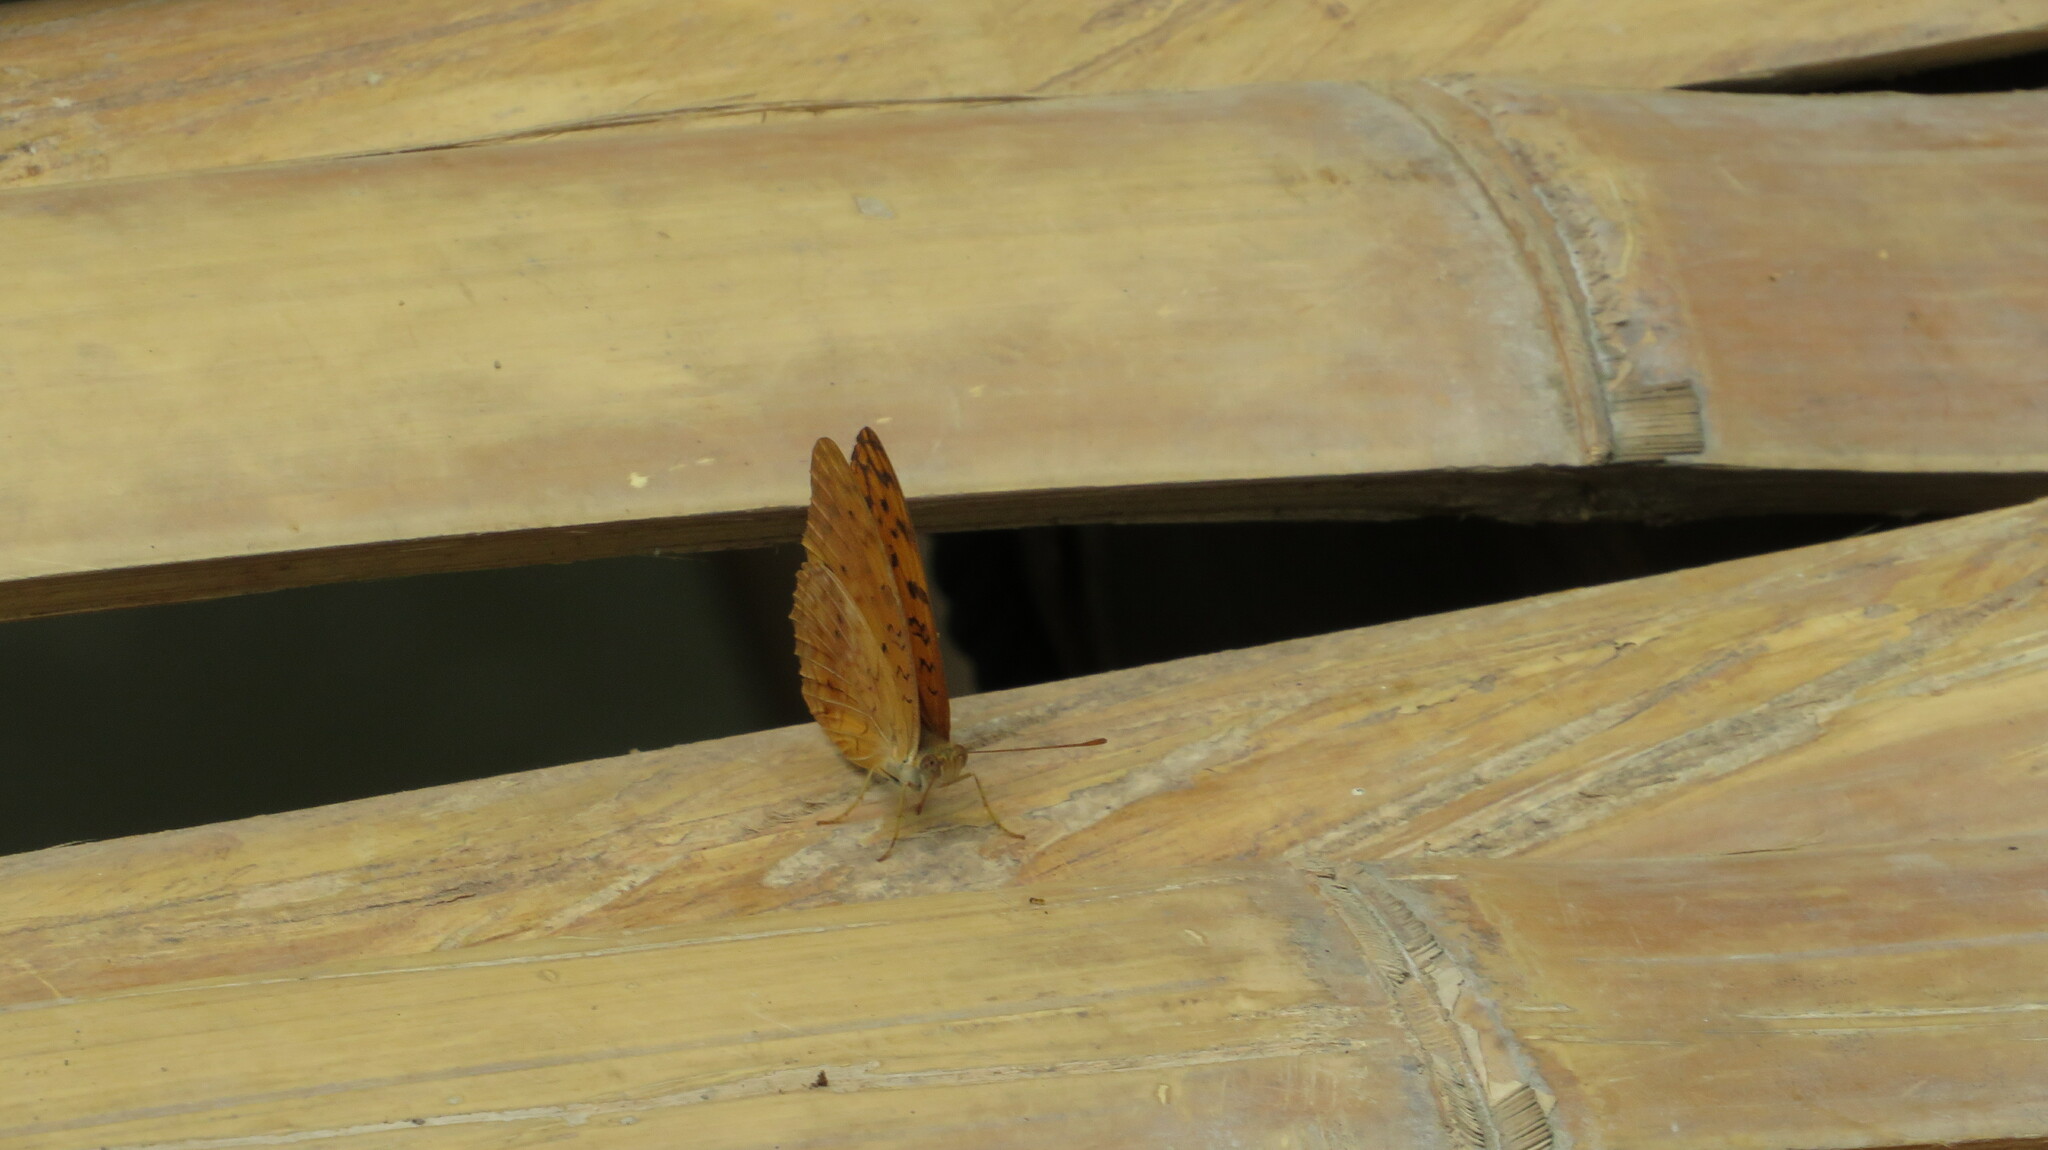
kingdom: Animalia
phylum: Arthropoda
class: Insecta
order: Lepidoptera
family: Nymphalidae
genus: Phalanta
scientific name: Phalanta phalantha
